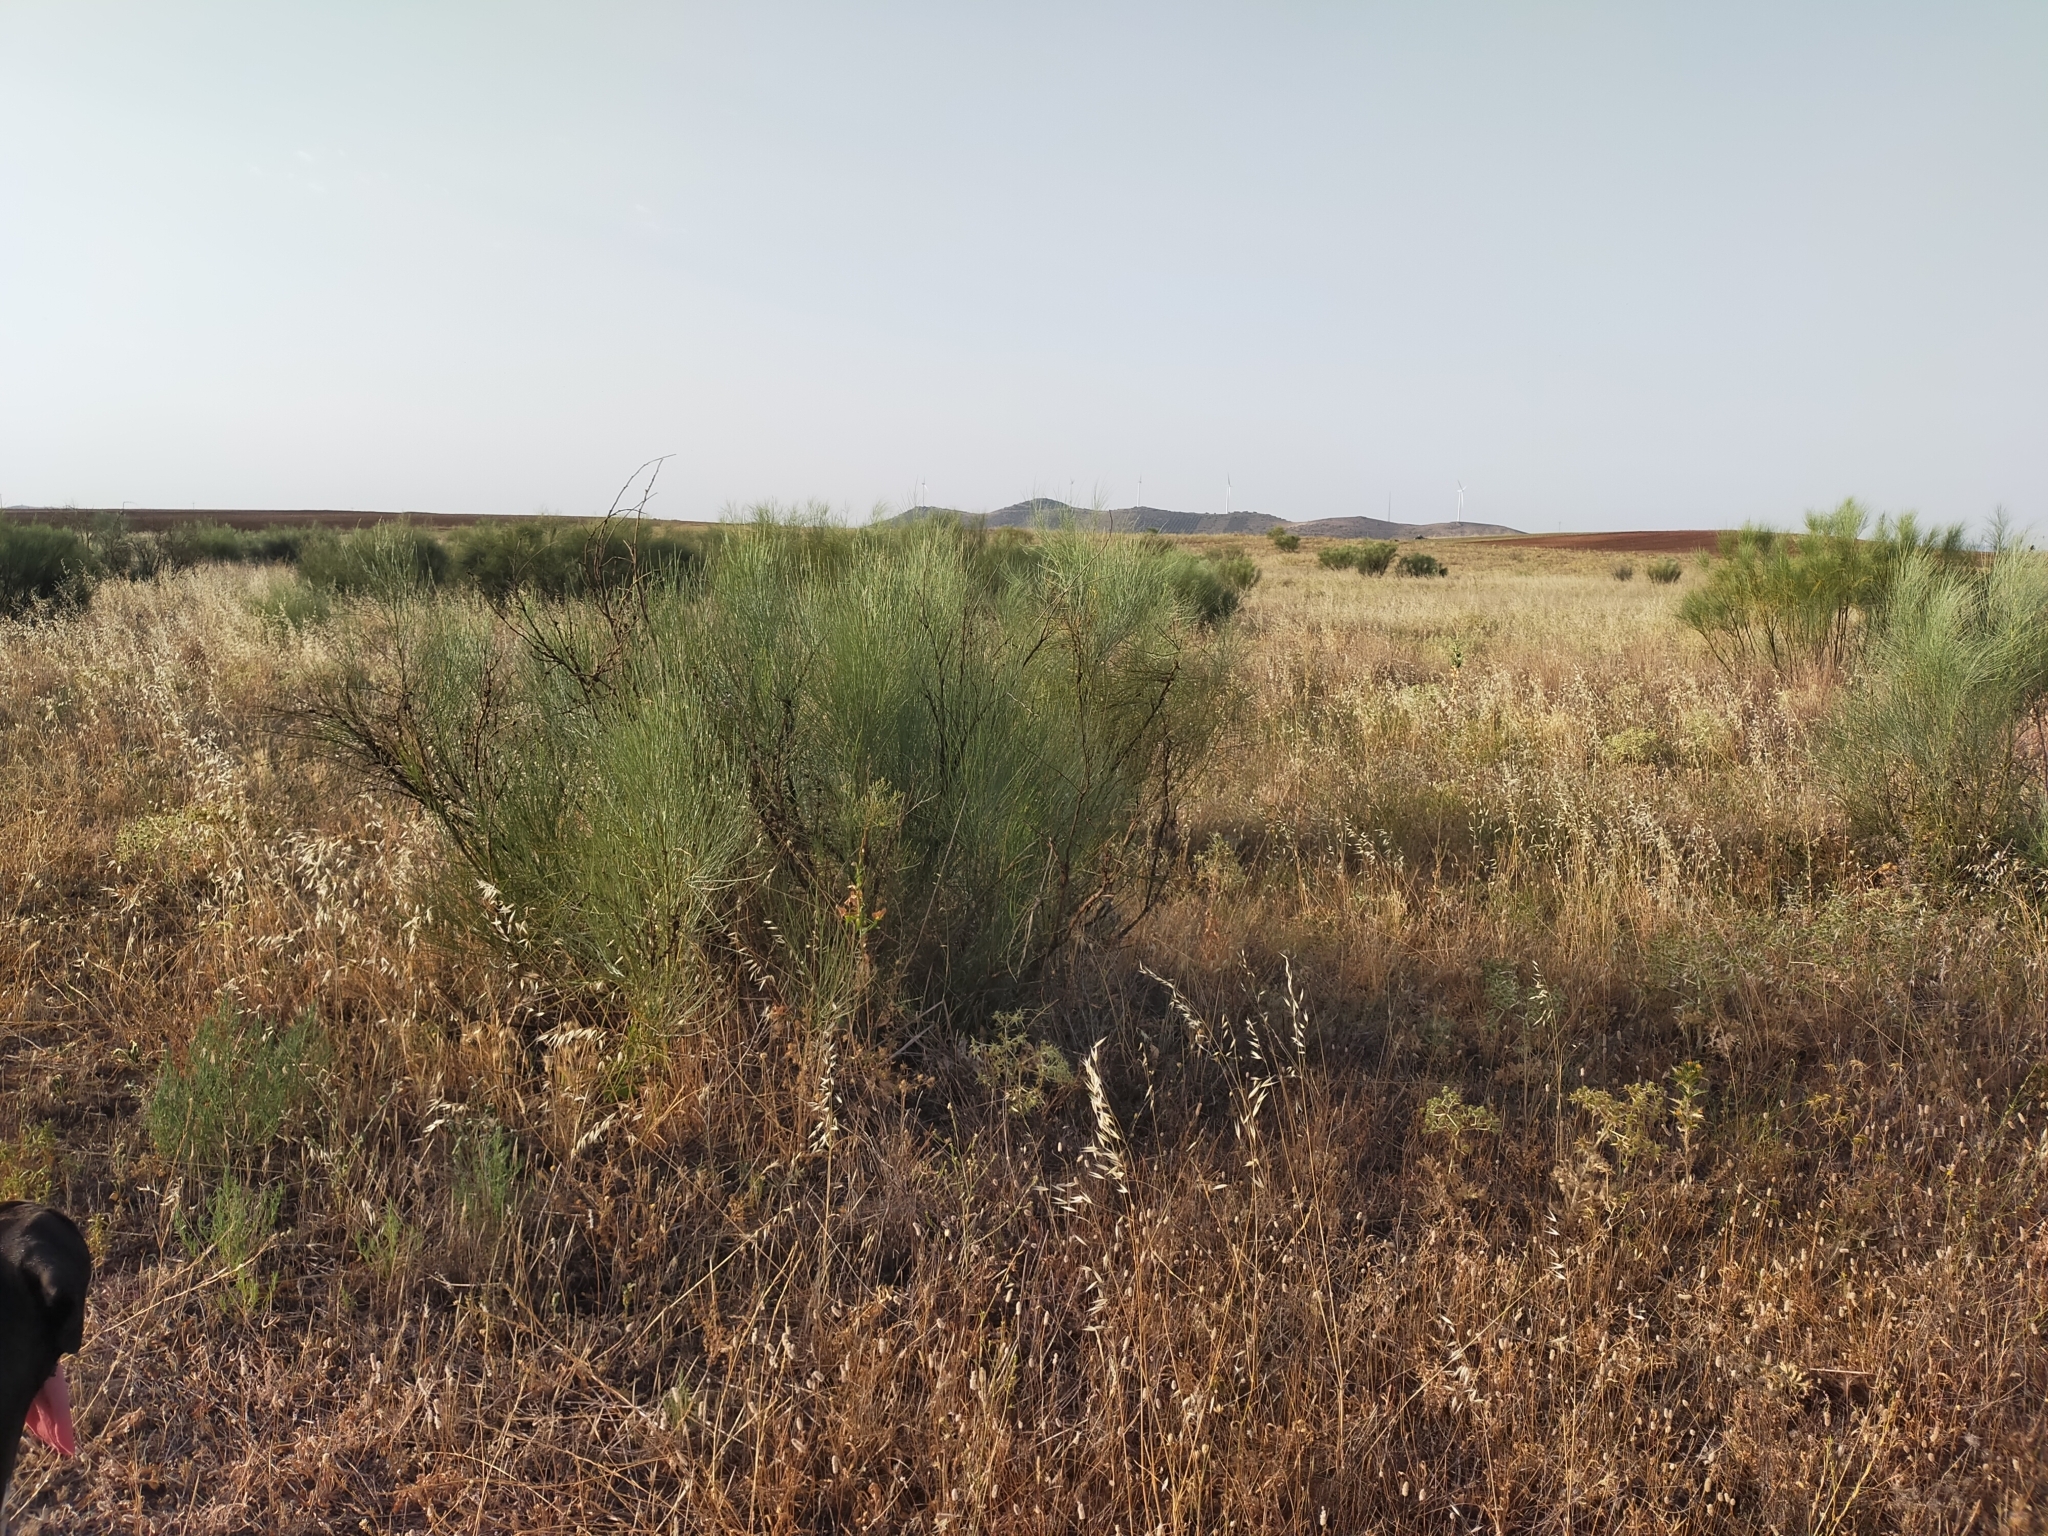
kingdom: Plantae
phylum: Tracheophyta
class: Magnoliopsida
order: Fabales
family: Fabaceae
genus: Retama
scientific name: Retama sphaerocarpa
